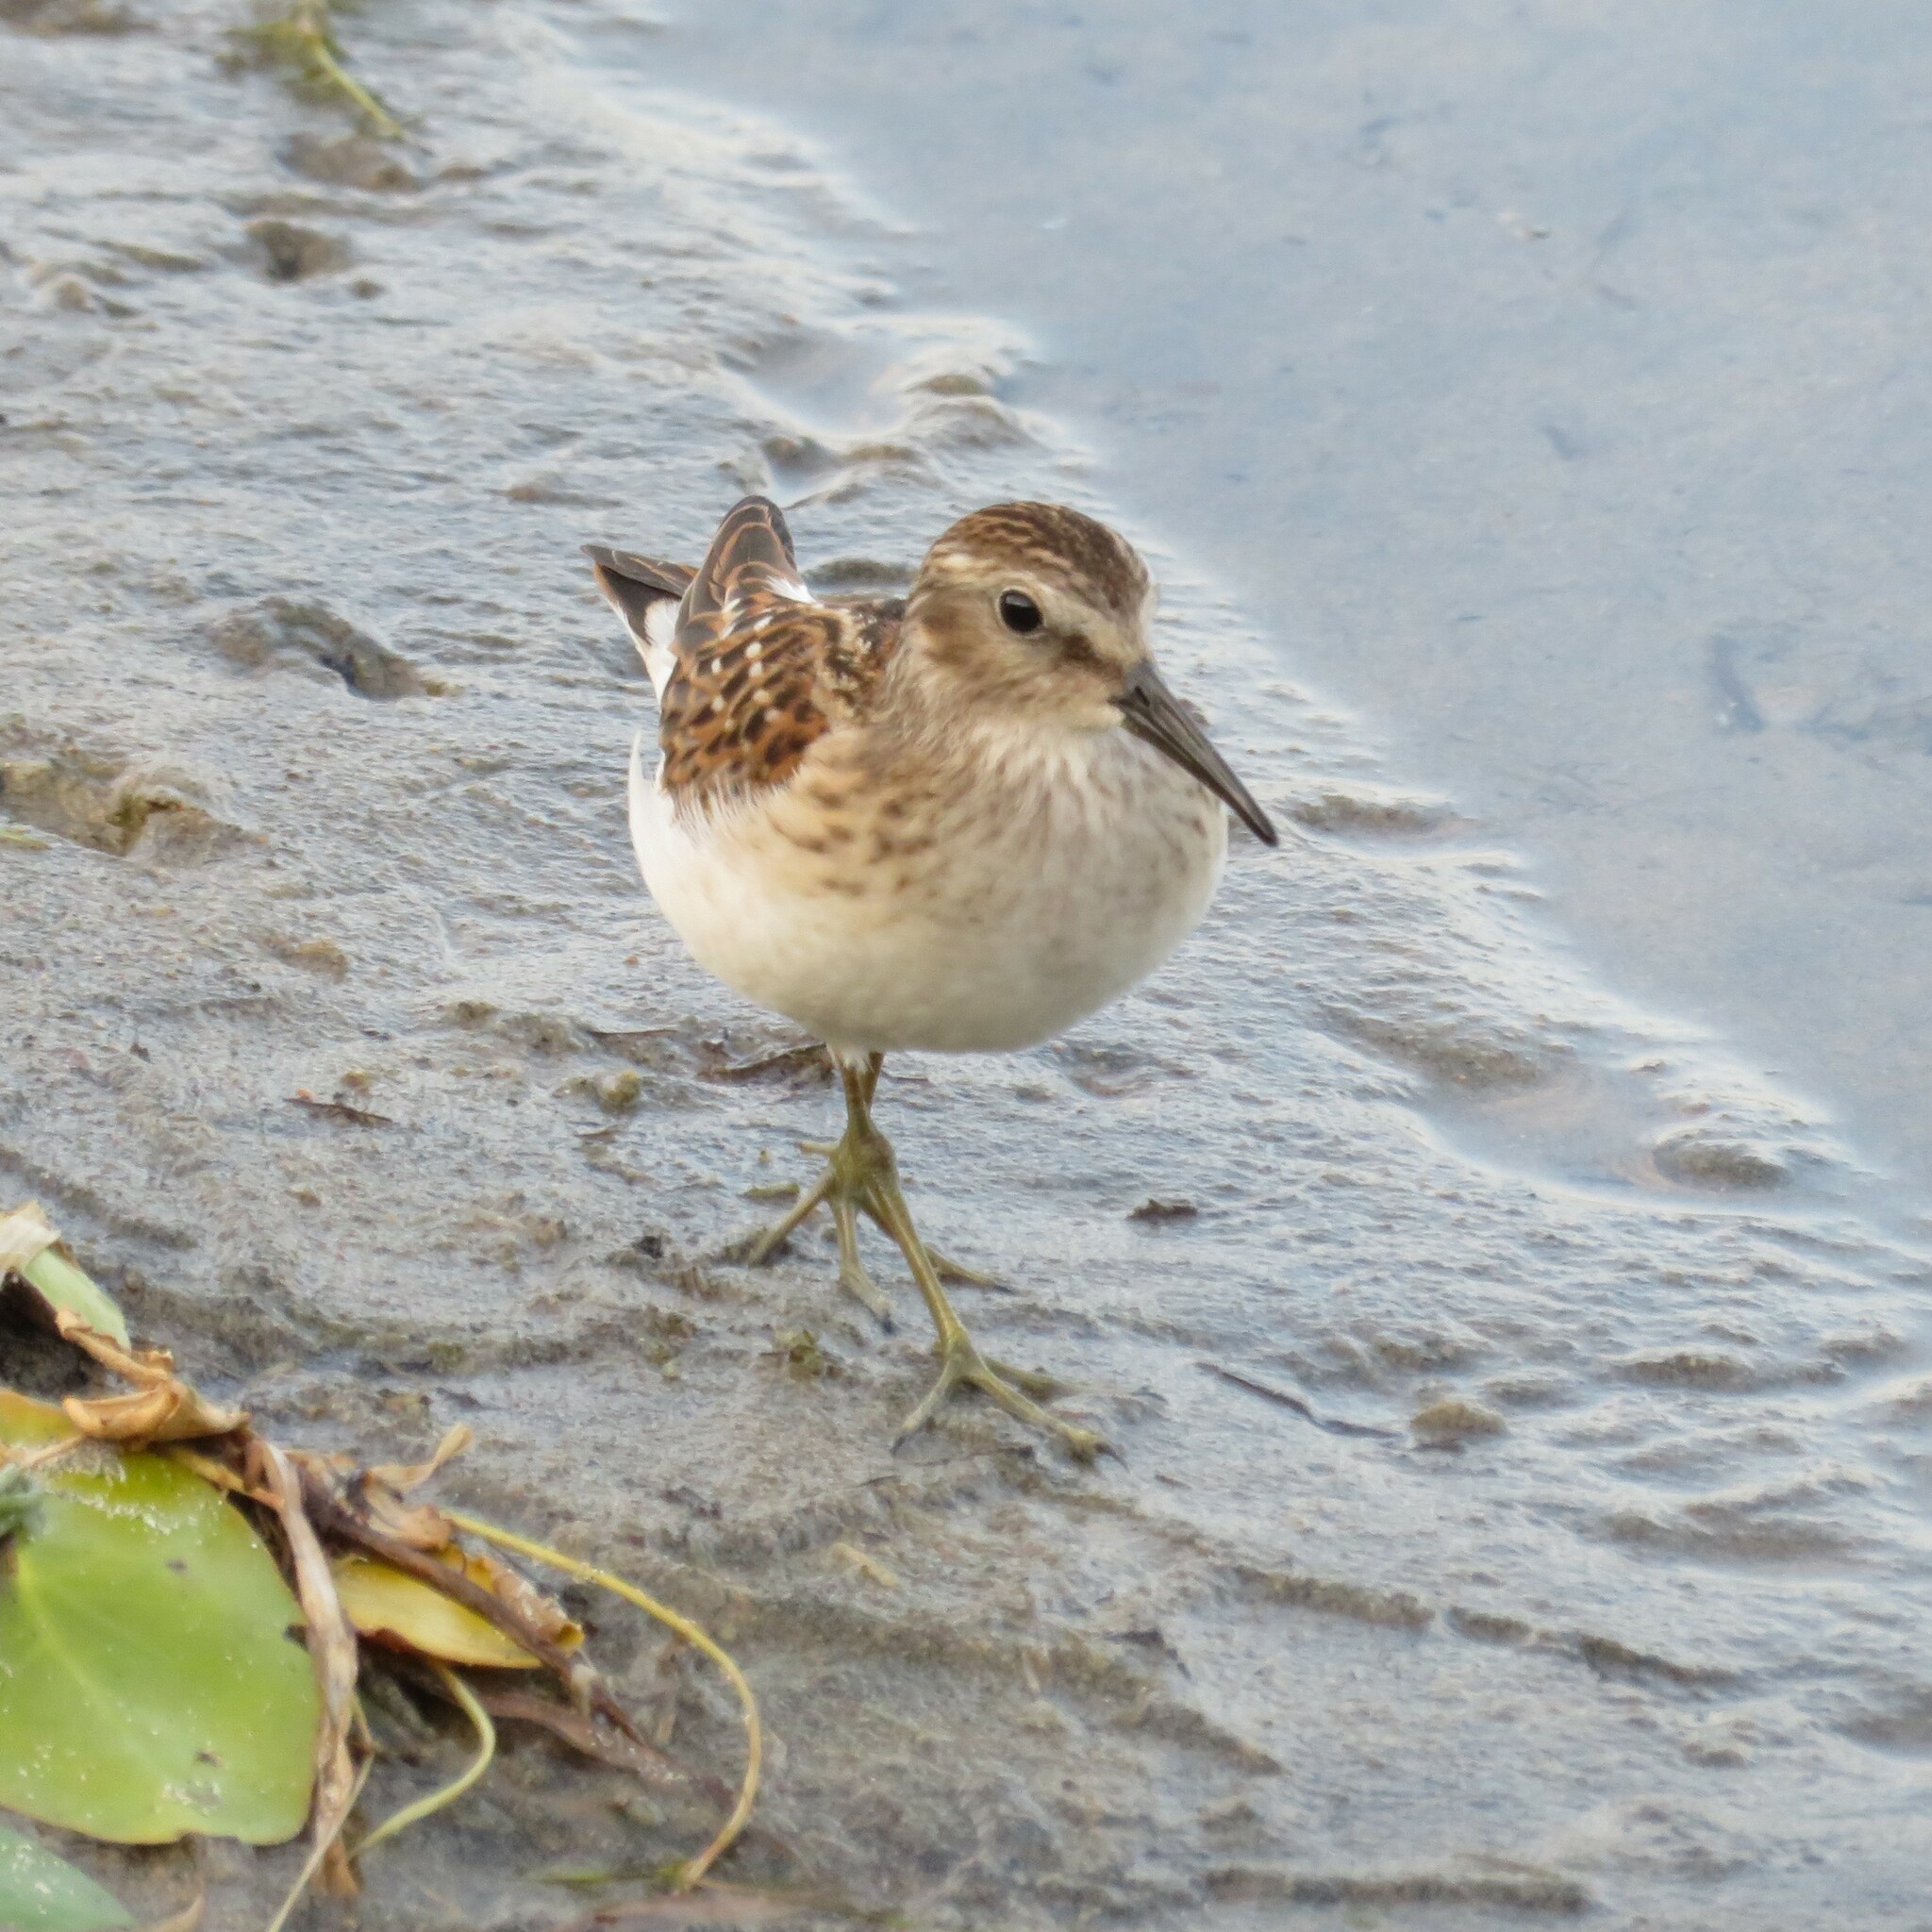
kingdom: Animalia
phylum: Chordata
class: Aves
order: Charadriiformes
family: Scolopacidae
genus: Calidris
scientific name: Calidris minutilla
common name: Least sandpiper
